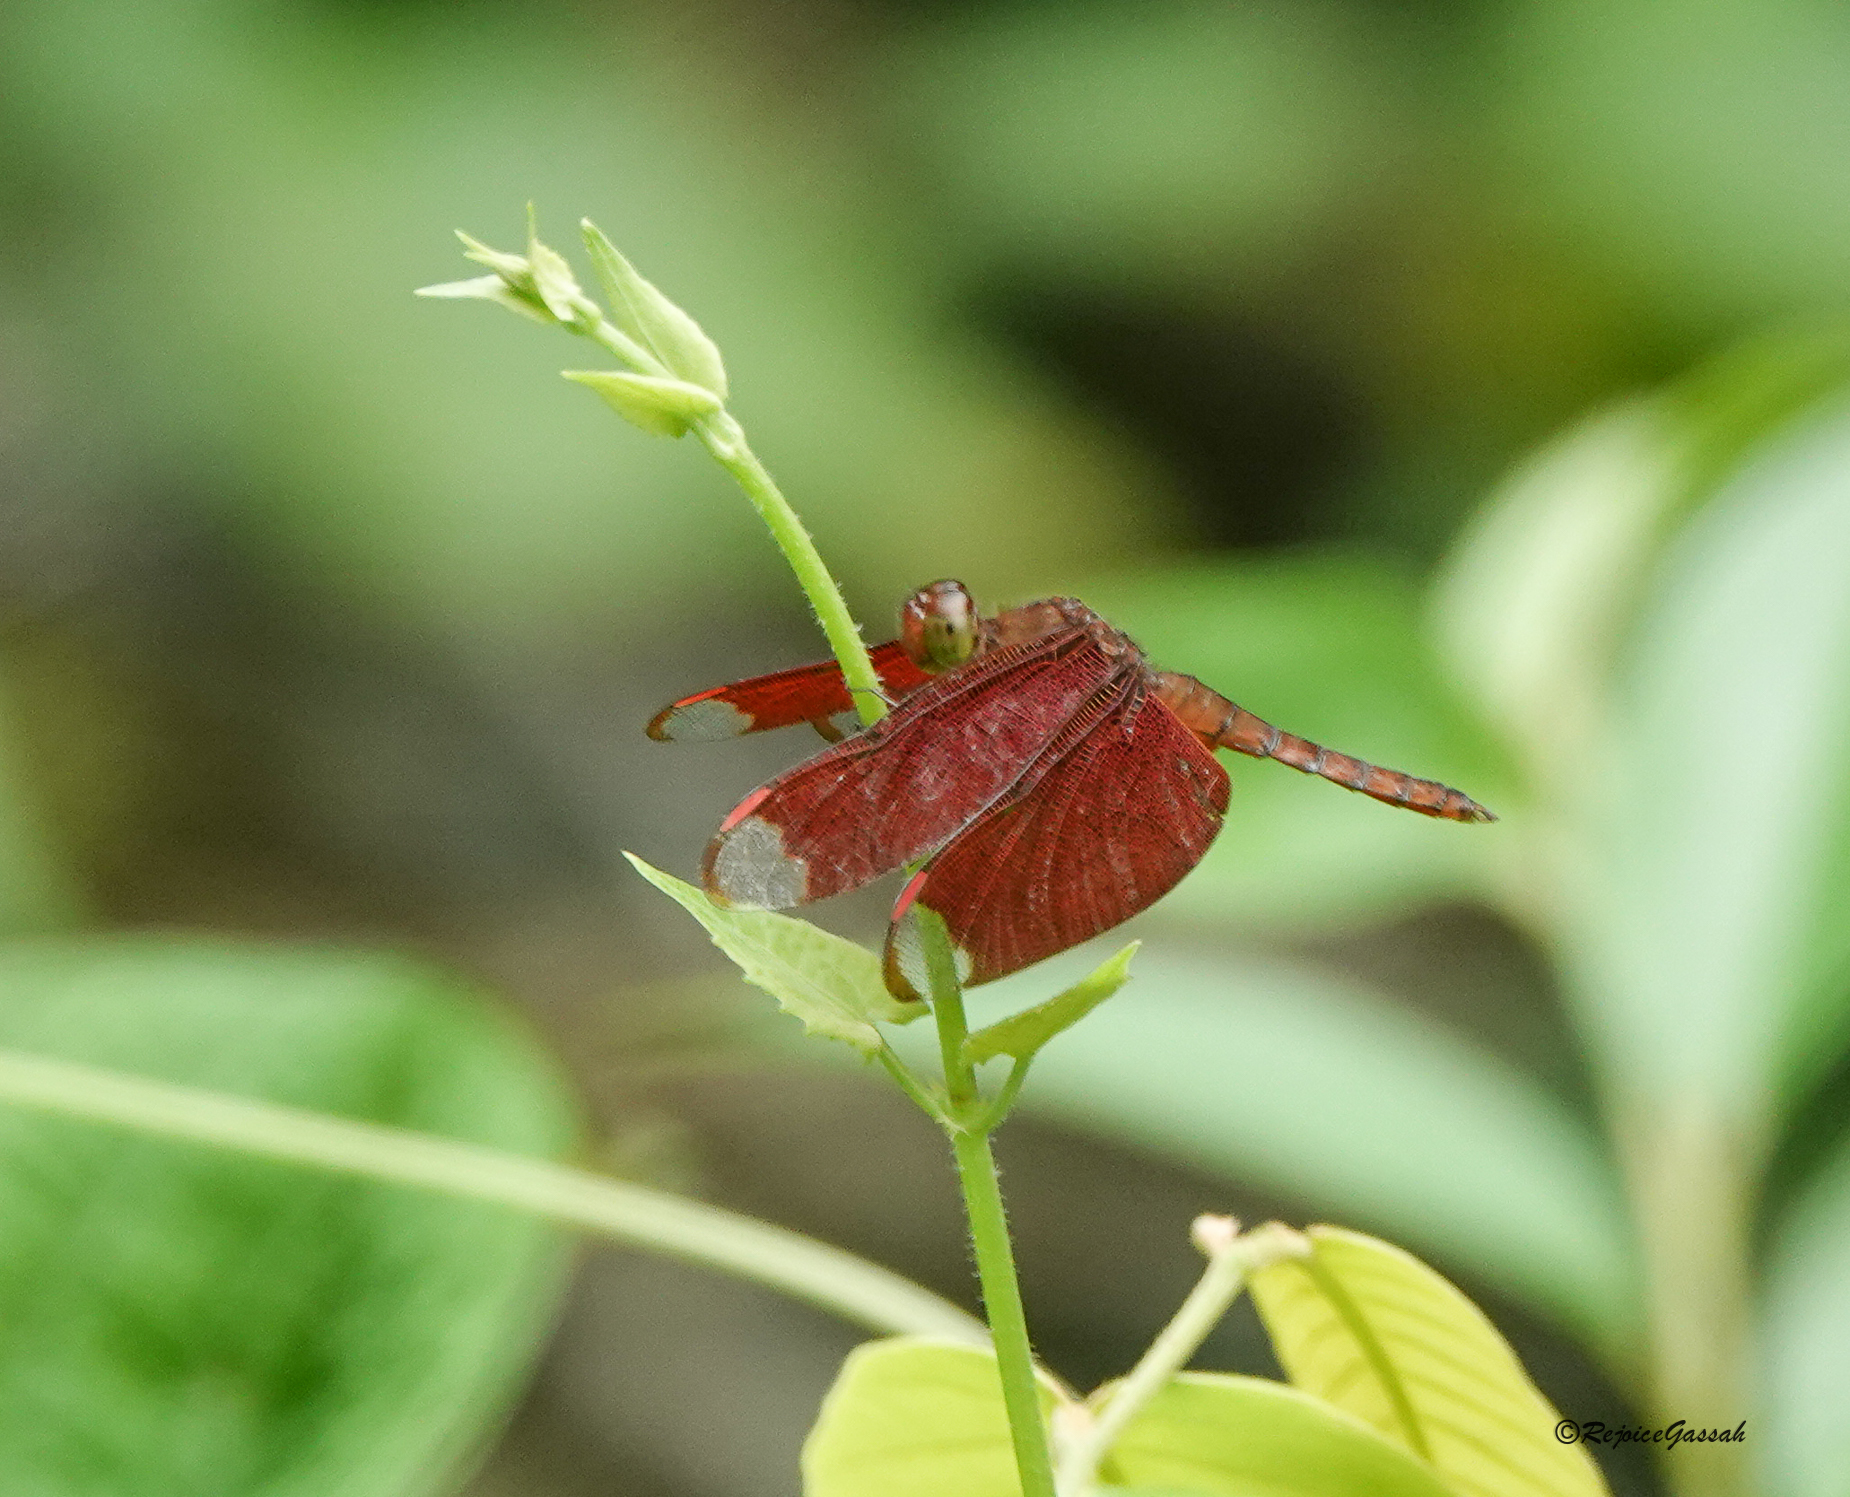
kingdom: Animalia
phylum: Arthropoda
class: Insecta
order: Odonata
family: Libellulidae
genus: Neurothemis
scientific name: Neurothemis fulvia
